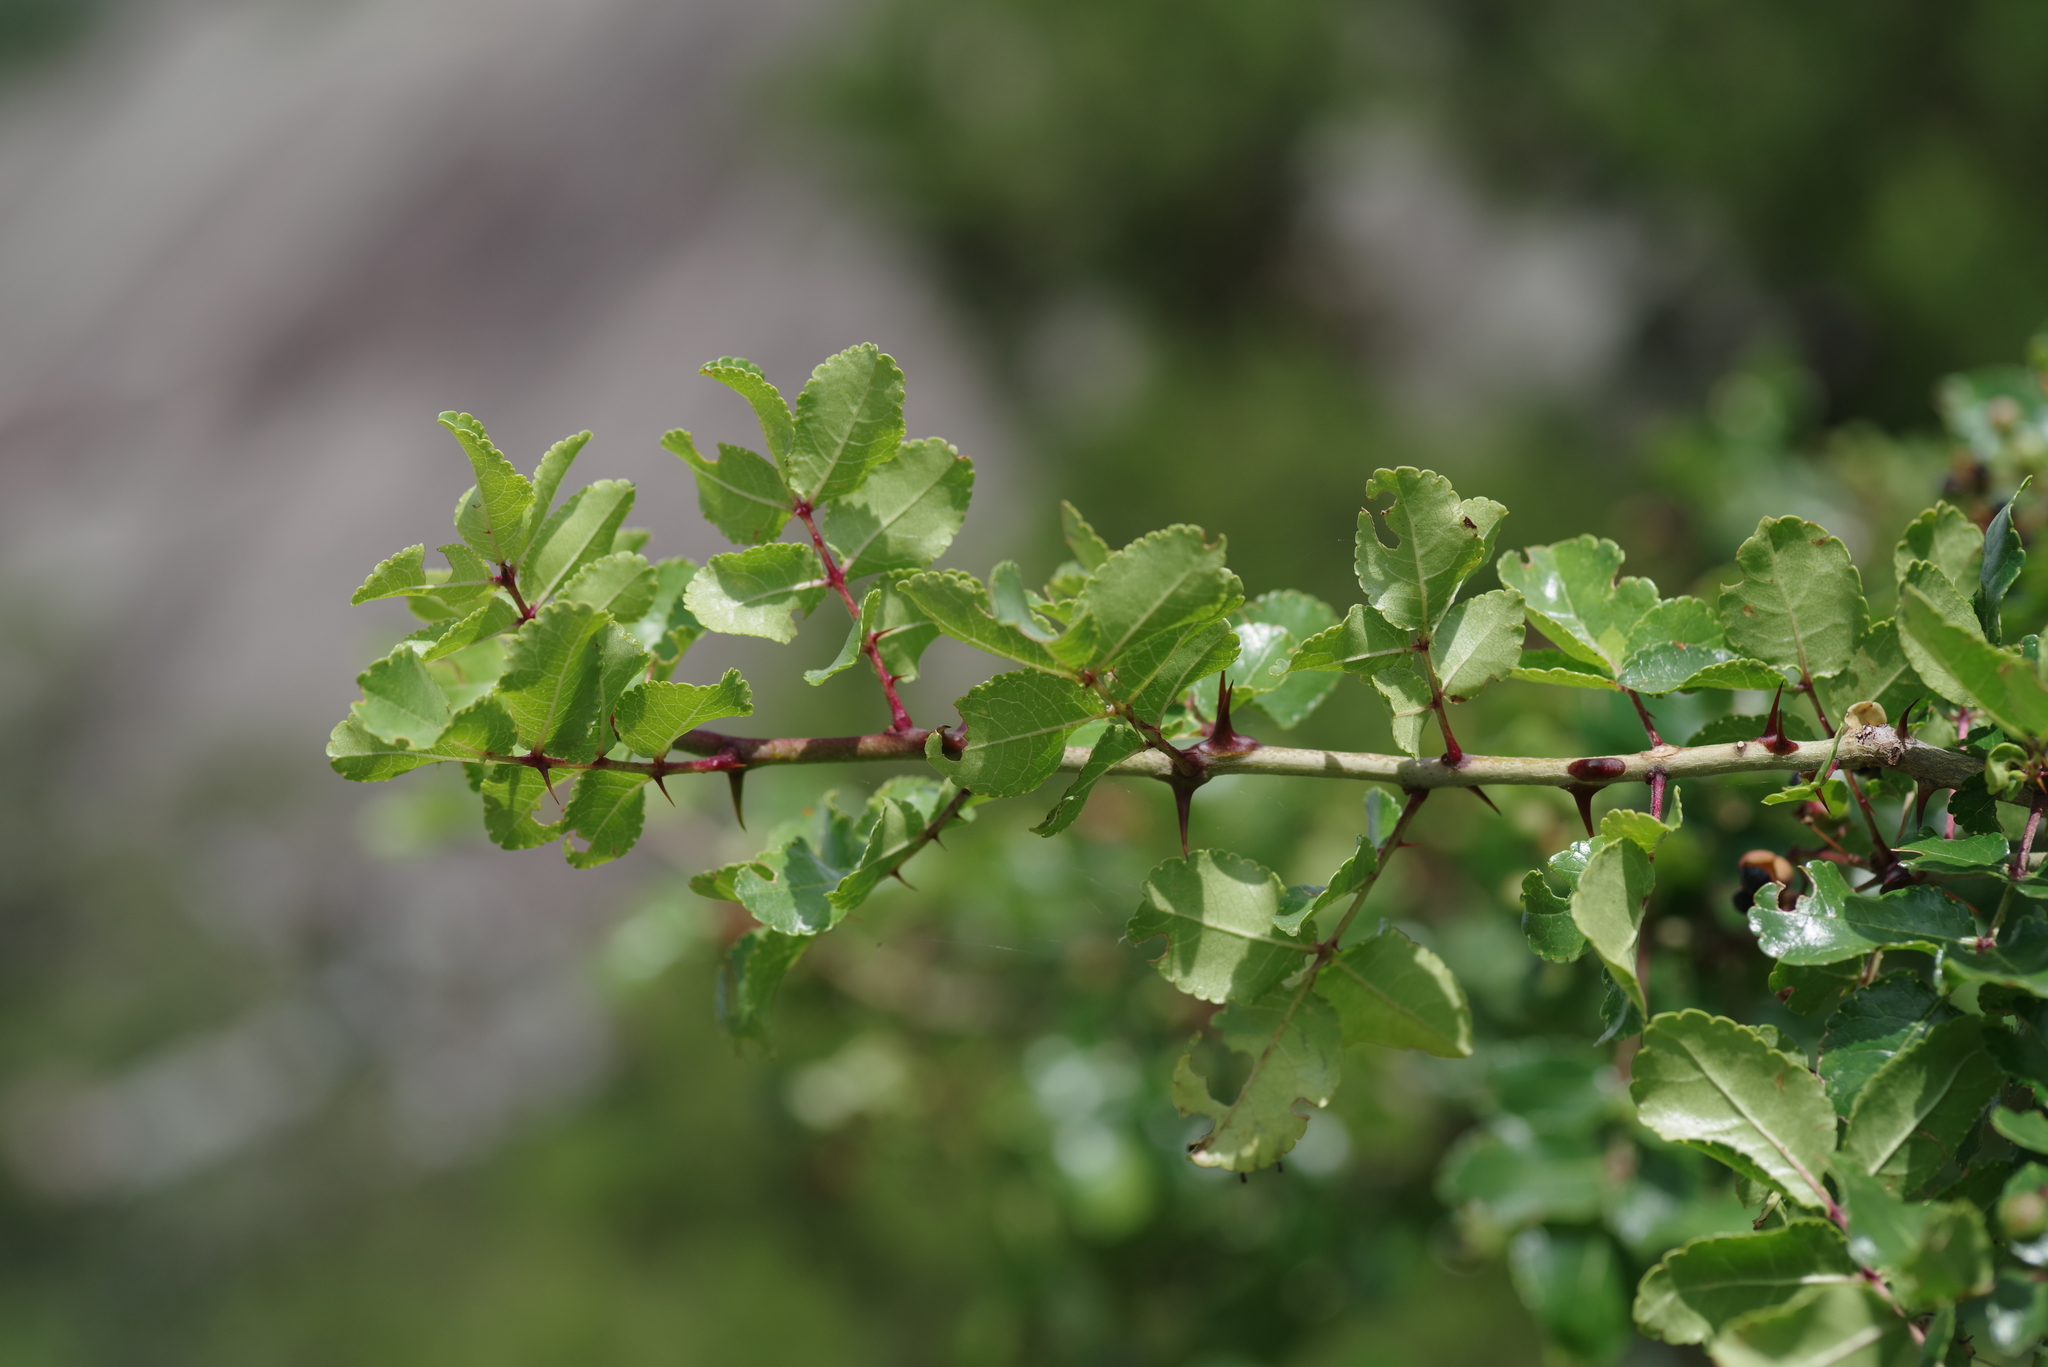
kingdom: Plantae
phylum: Tracheophyta
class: Magnoliopsida
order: Sapindales
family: Rutaceae
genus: Zanthoxylum
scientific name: Zanthoxylum clava-herculis
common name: Hercules'-club
